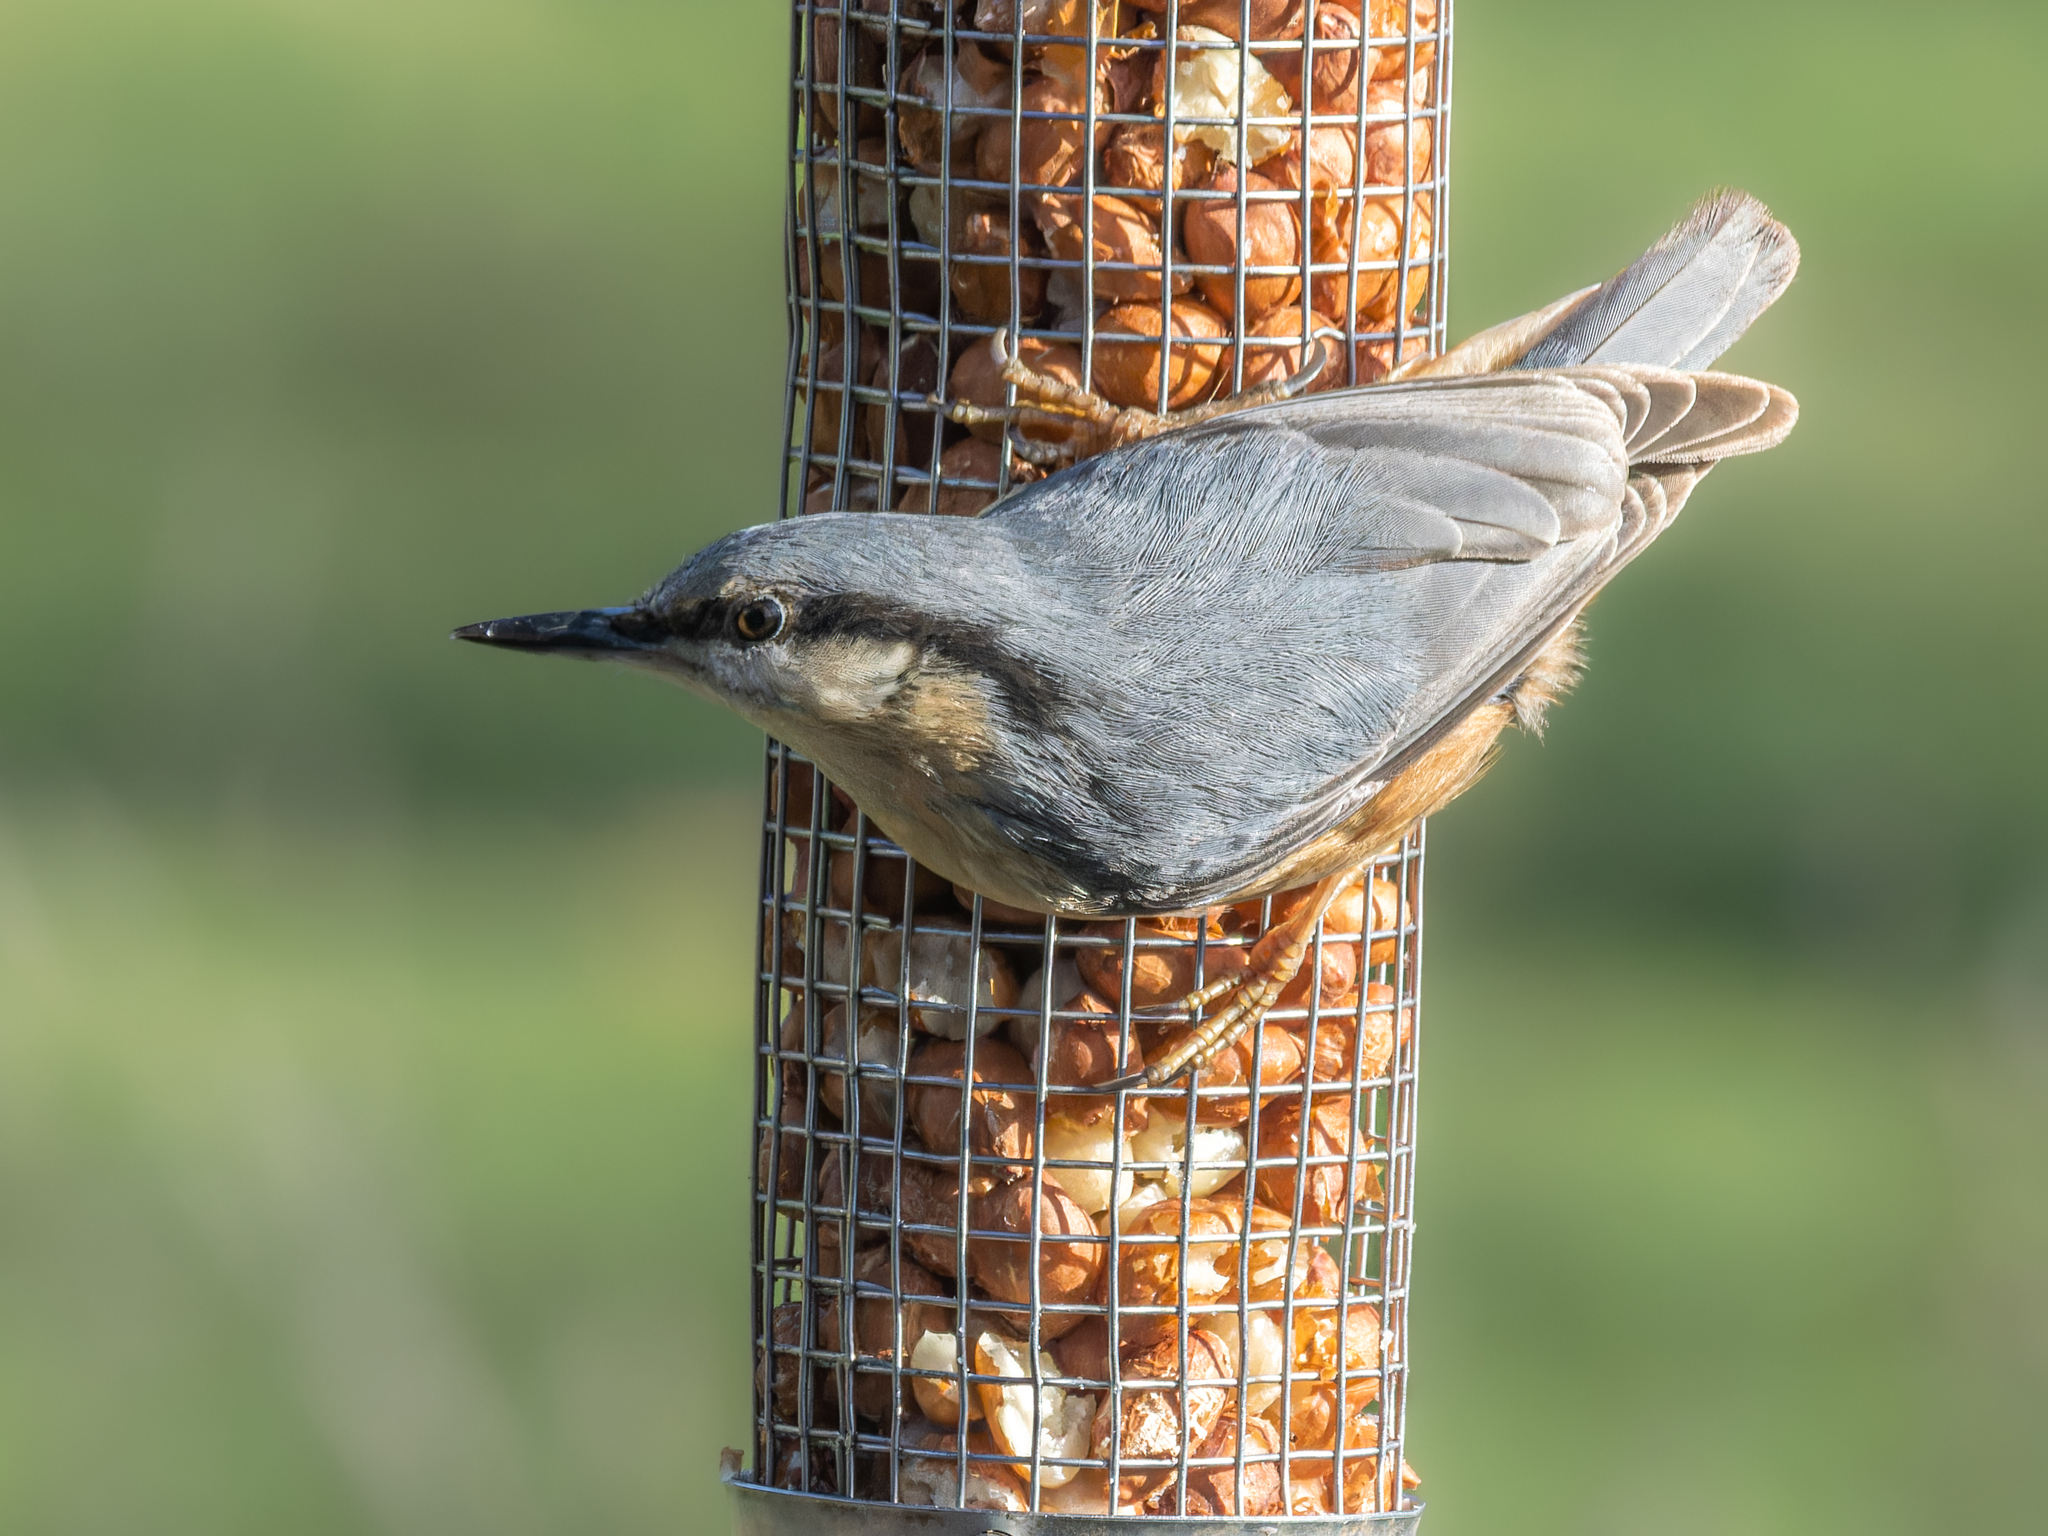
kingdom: Animalia
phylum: Chordata
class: Aves
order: Passeriformes
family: Sittidae
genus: Sitta
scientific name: Sitta europaea
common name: Eurasian nuthatch
